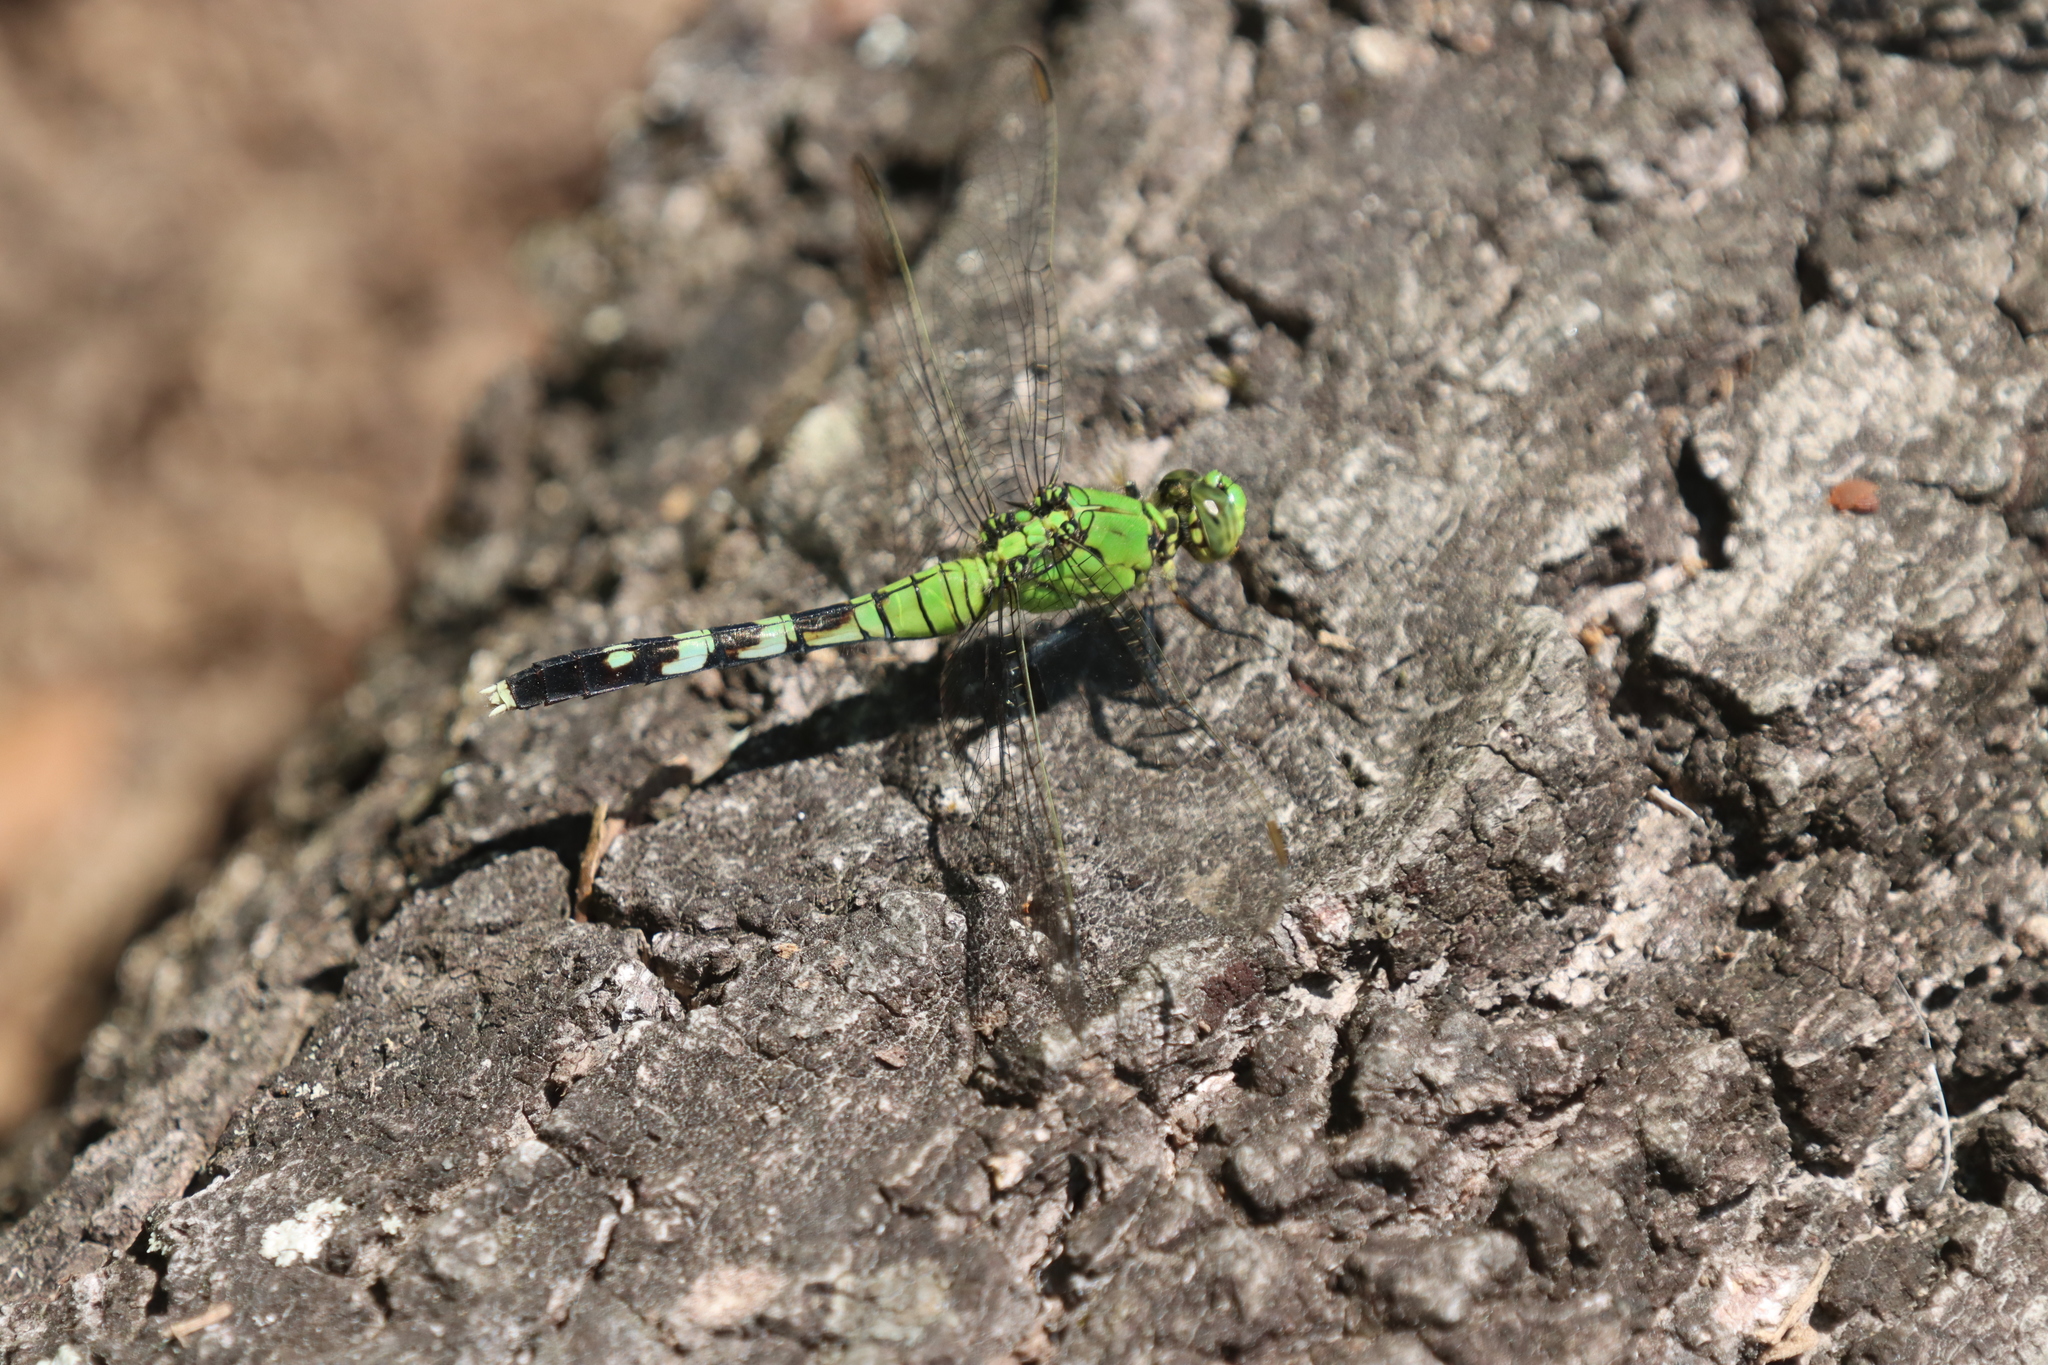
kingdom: Animalia
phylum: Arthropoda
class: Insecta
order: Odonata
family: Libellulidae
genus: Erythemis
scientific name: Erythemis simplicicollis
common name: Eastern pondhawk
